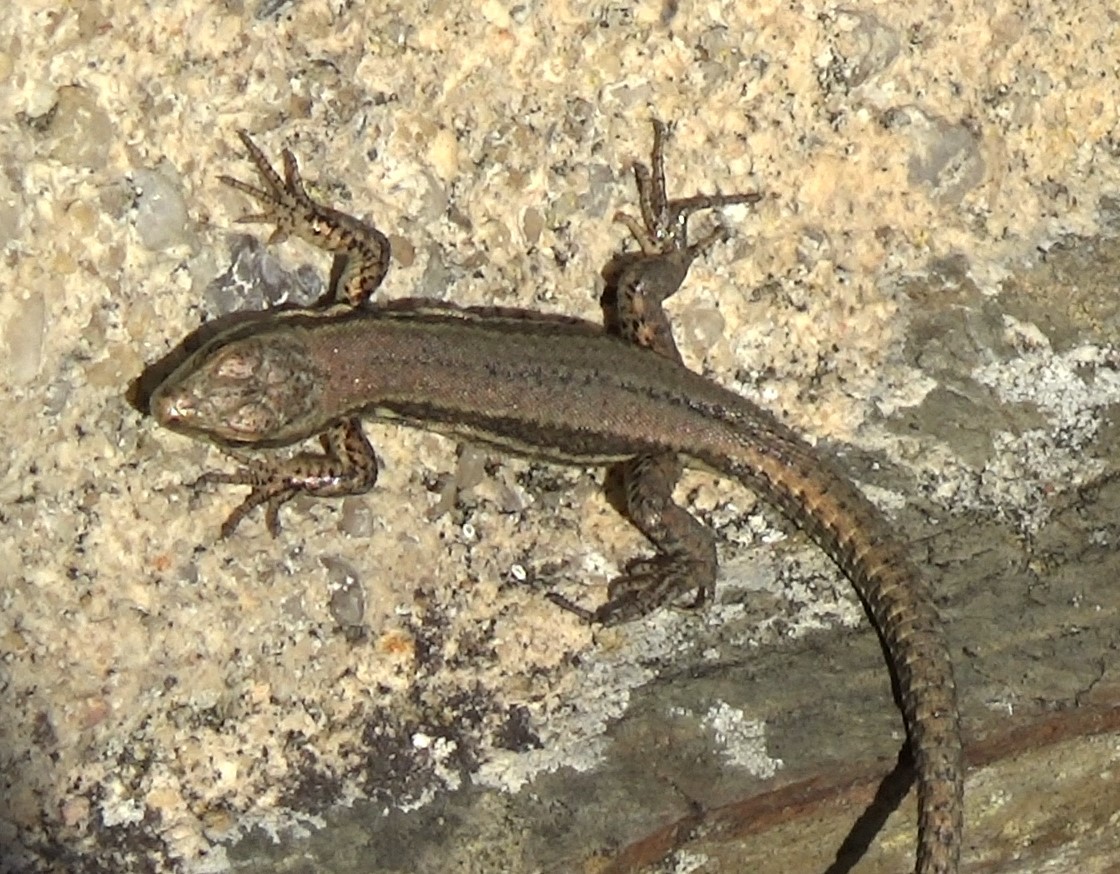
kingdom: Animalia
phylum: Chordata
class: Squamata
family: Lacertidae
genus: Podarcis
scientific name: Podarcis muralis
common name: Common wall lizard
